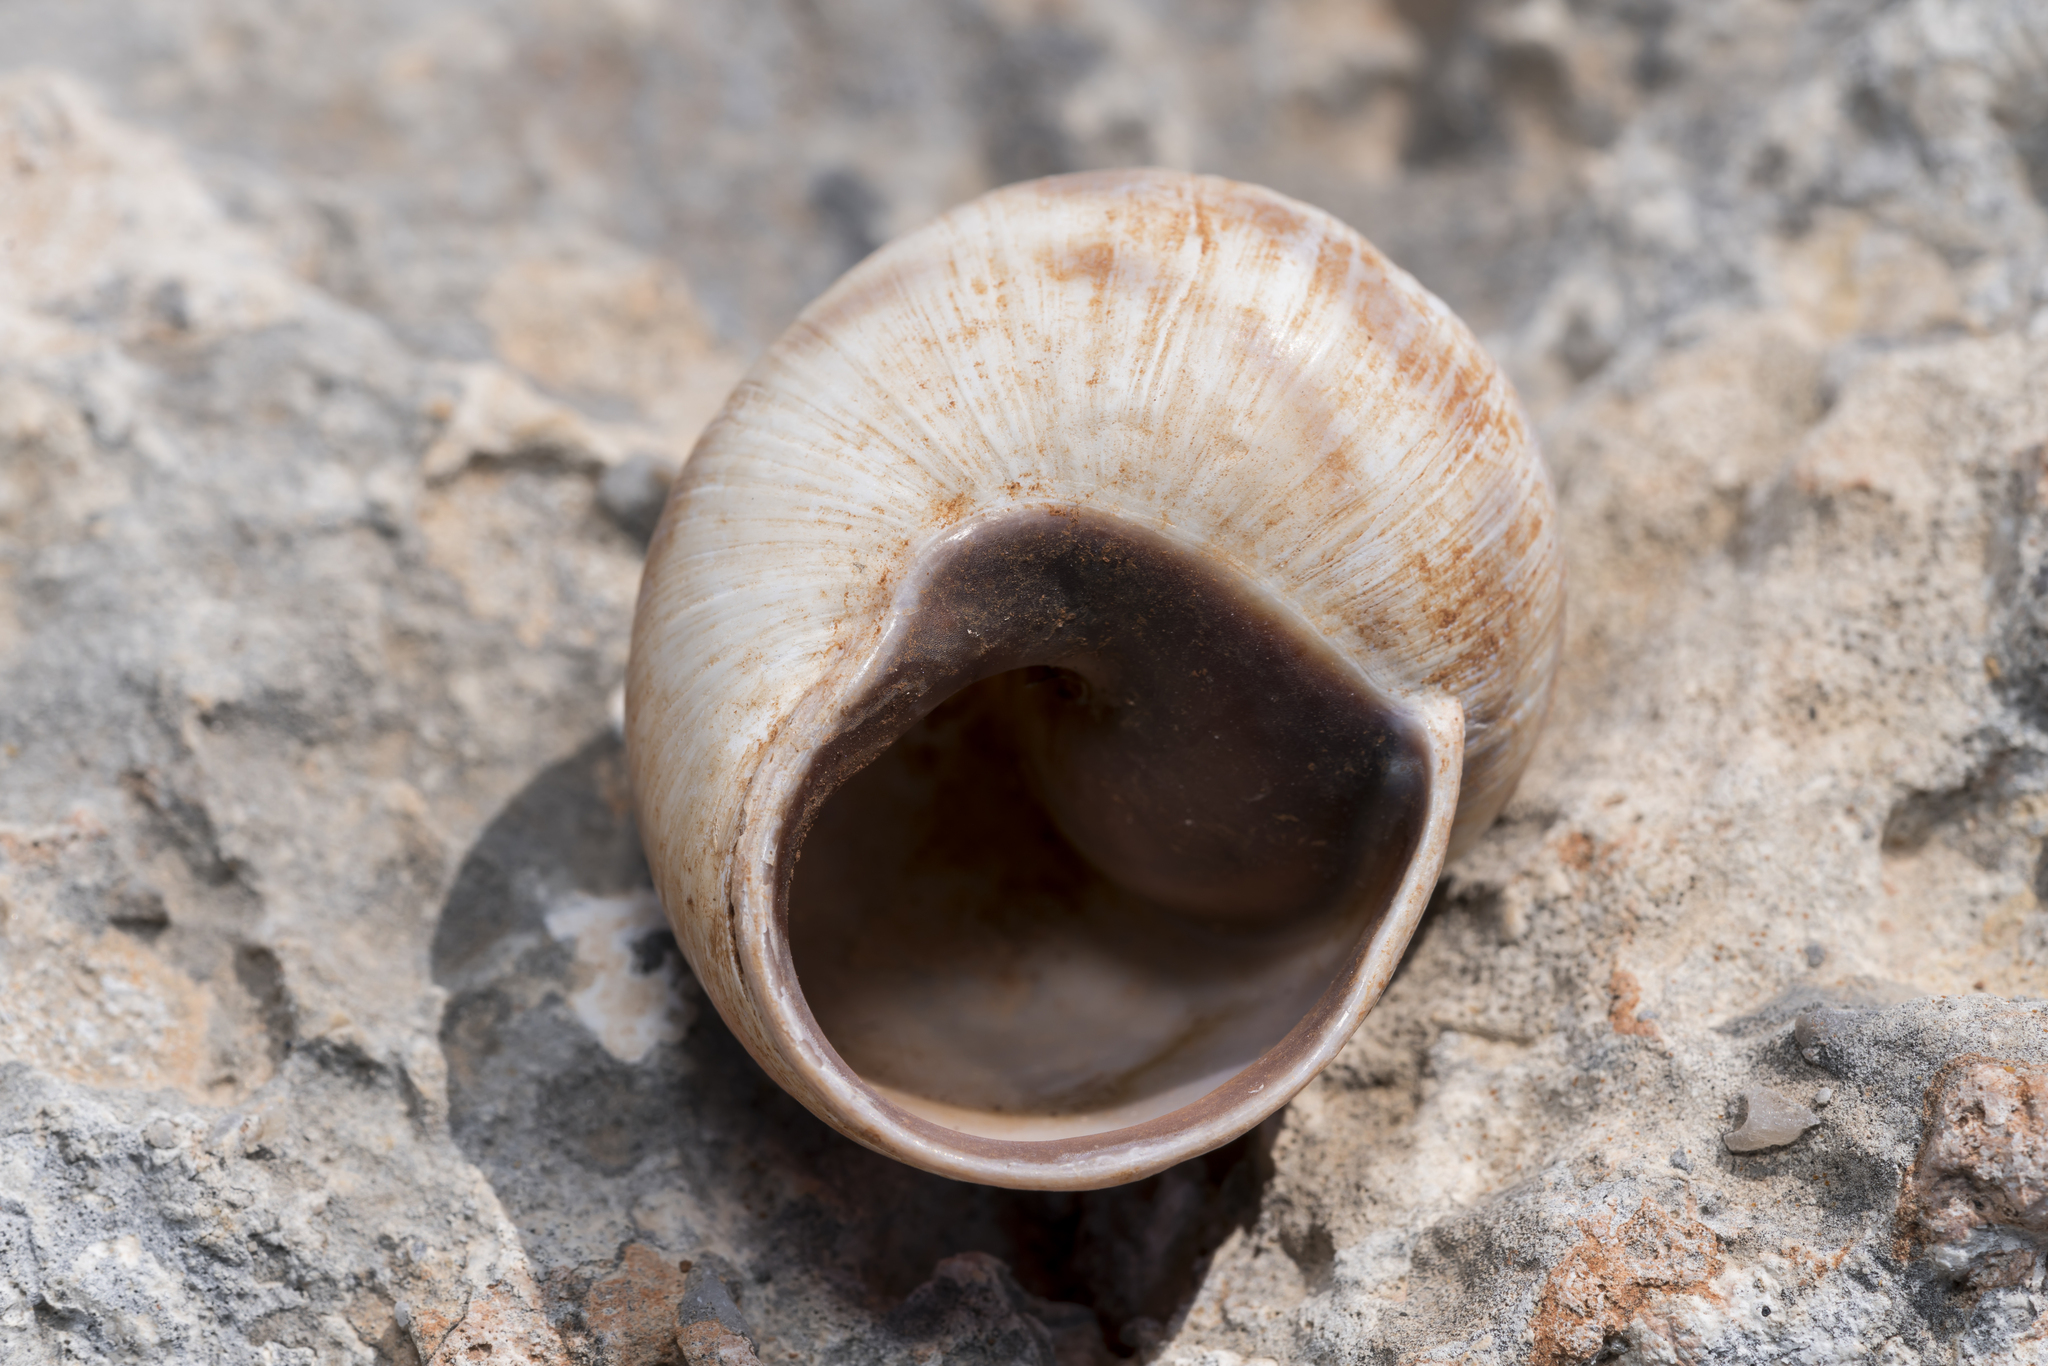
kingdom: Animalia
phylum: Mollusca
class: Gastropoda
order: Stylommatophora
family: Helicidae
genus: Helix
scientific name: Helix fathallae
